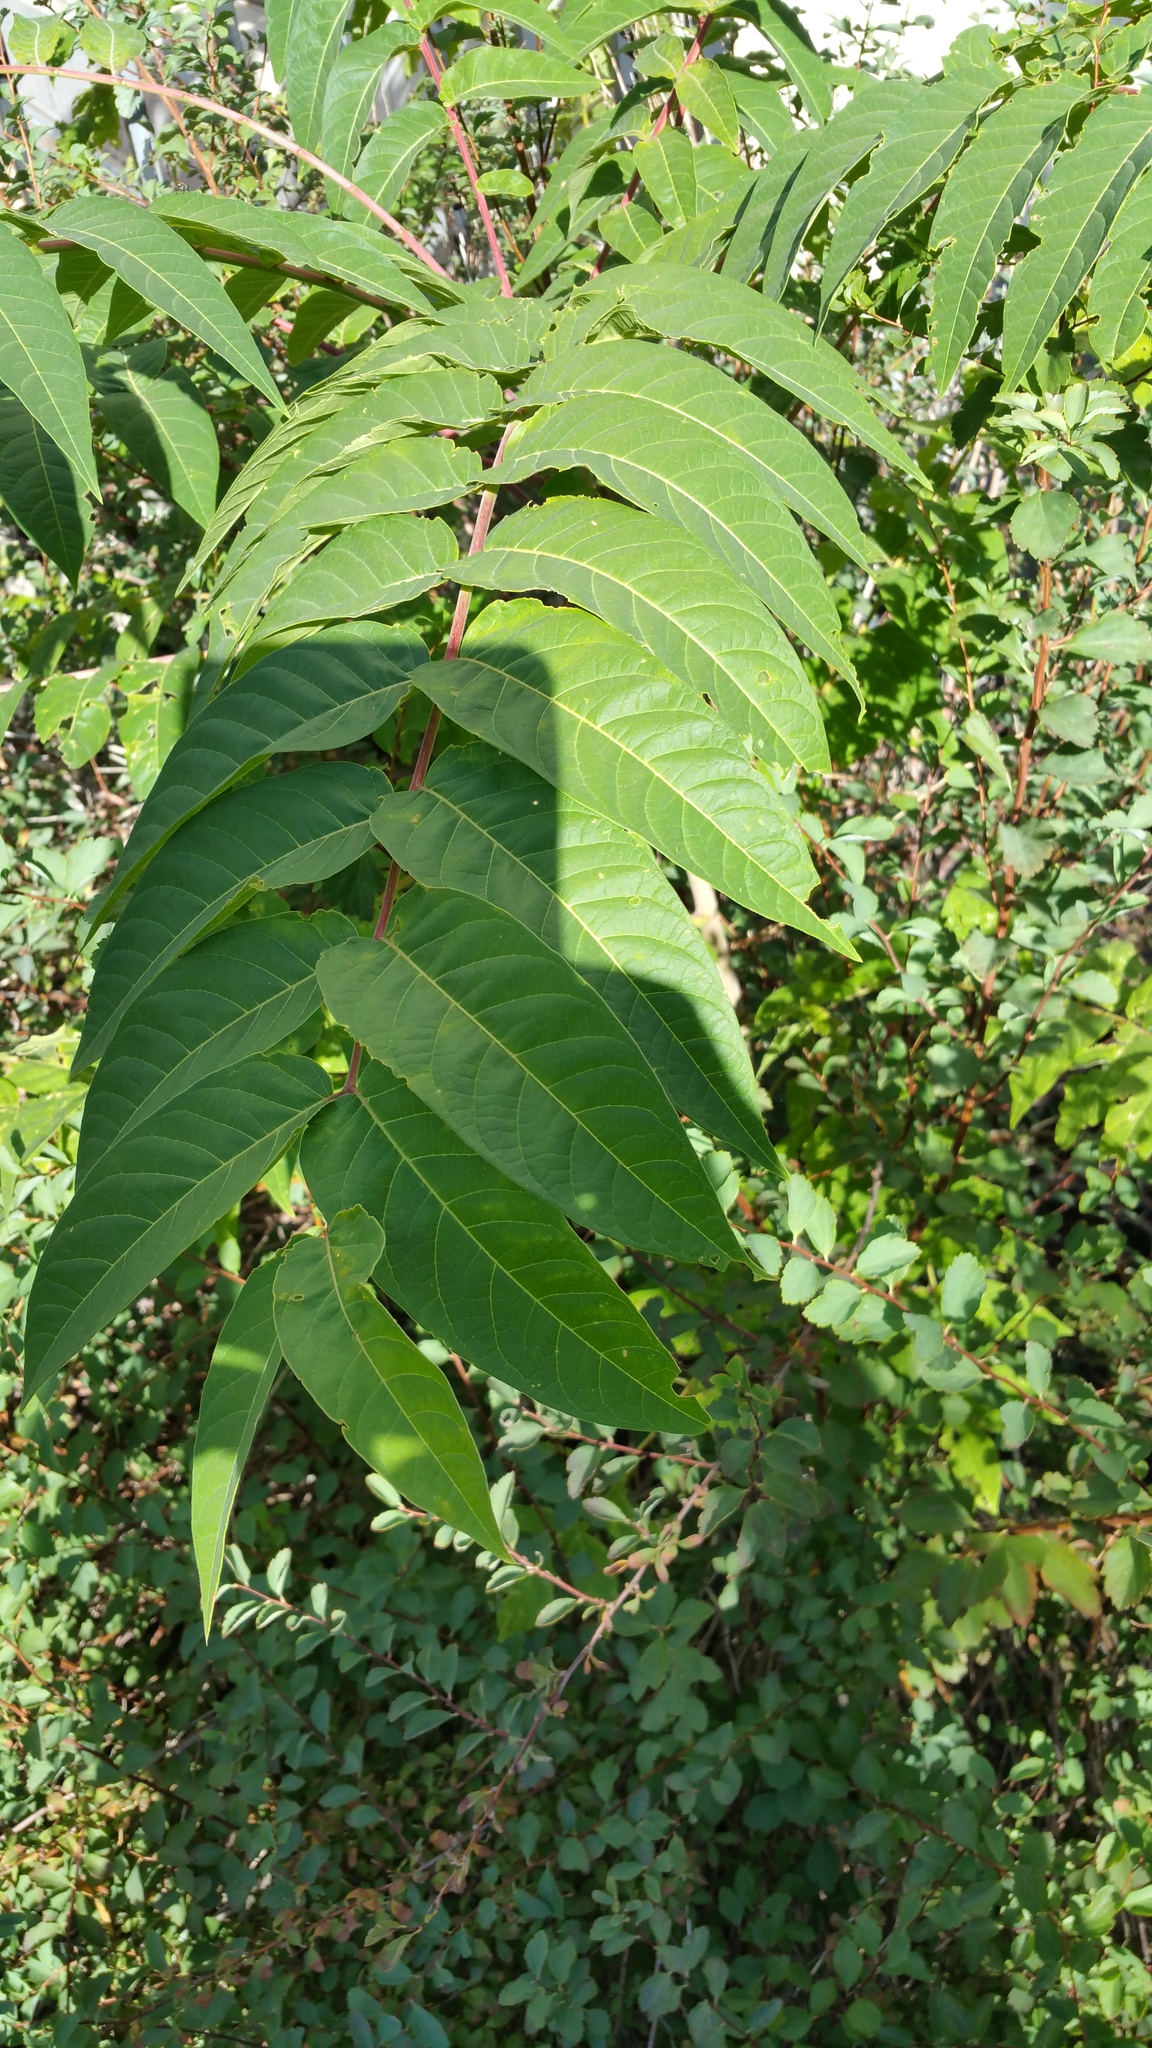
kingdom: Plantae
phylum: Tracheophyta
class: Magnoliopsida
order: Sapindales
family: Simaroubaceae
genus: Ailanthus
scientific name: Ailanthus altissima
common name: Tree-of-heaven
